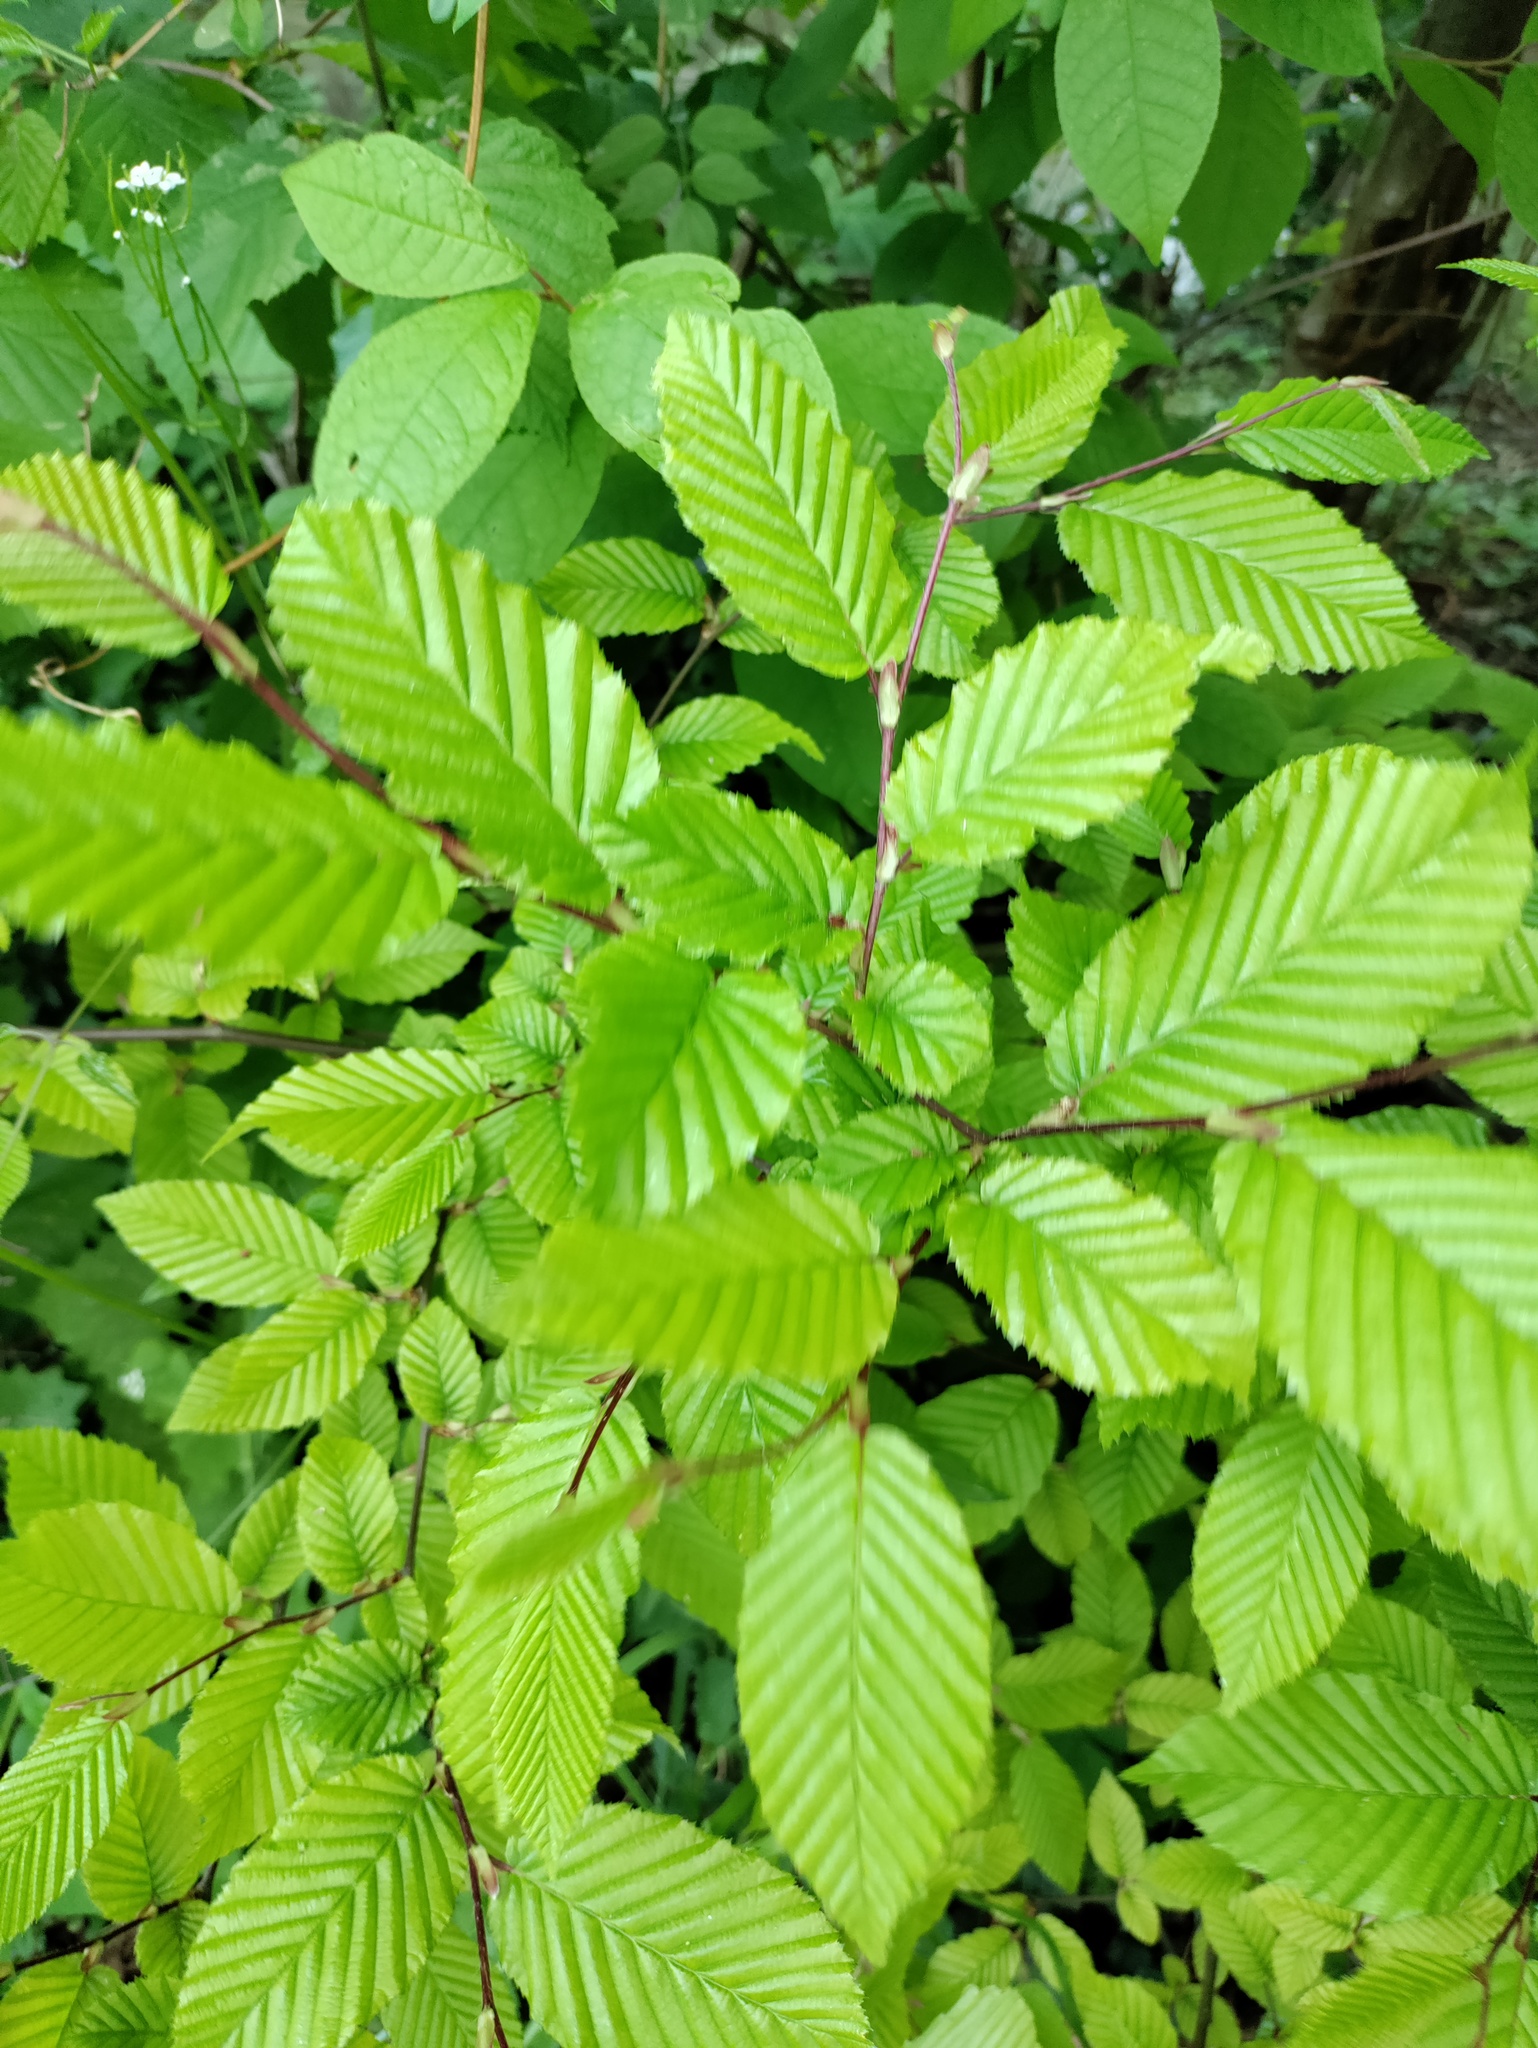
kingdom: Plantae
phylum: Tracheophyta
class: Magnoliopsida
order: Fagales
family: Betulaceae
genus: Carpinus
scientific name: Carpinus betulus
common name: Hornbeam
